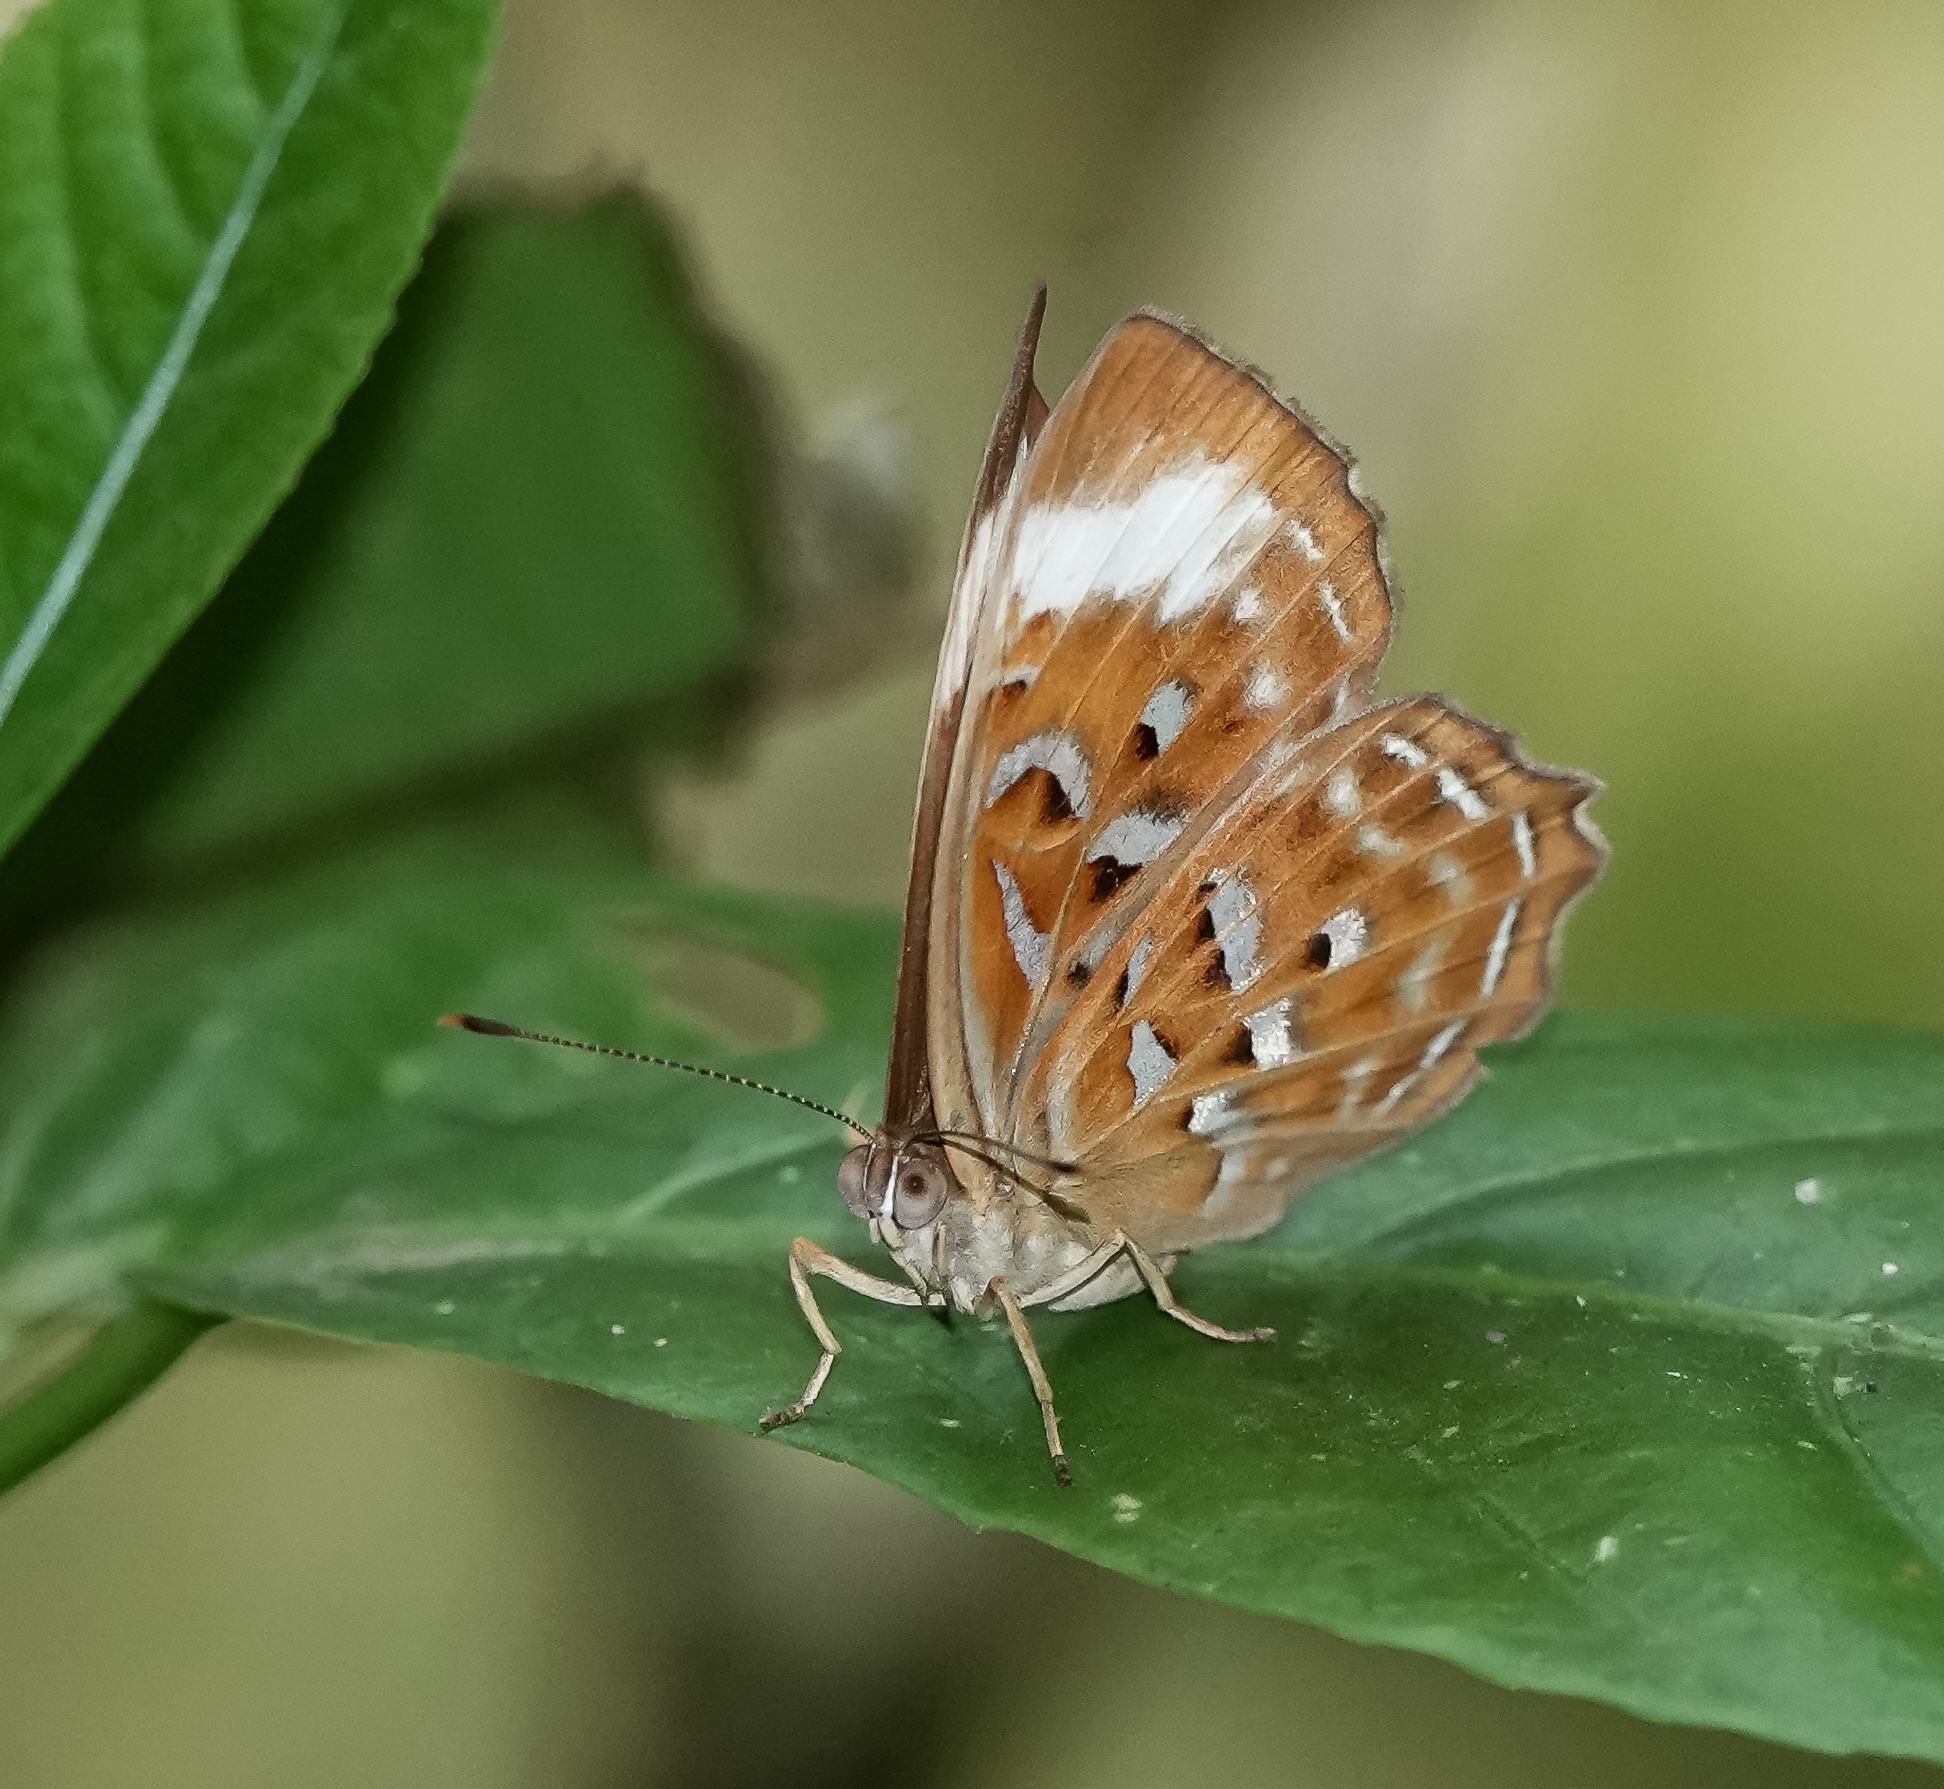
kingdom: Animalia
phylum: Arthropoda
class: Insecta
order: Lepidoptera
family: Erebidae
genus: Dysschema
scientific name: Dysschema
